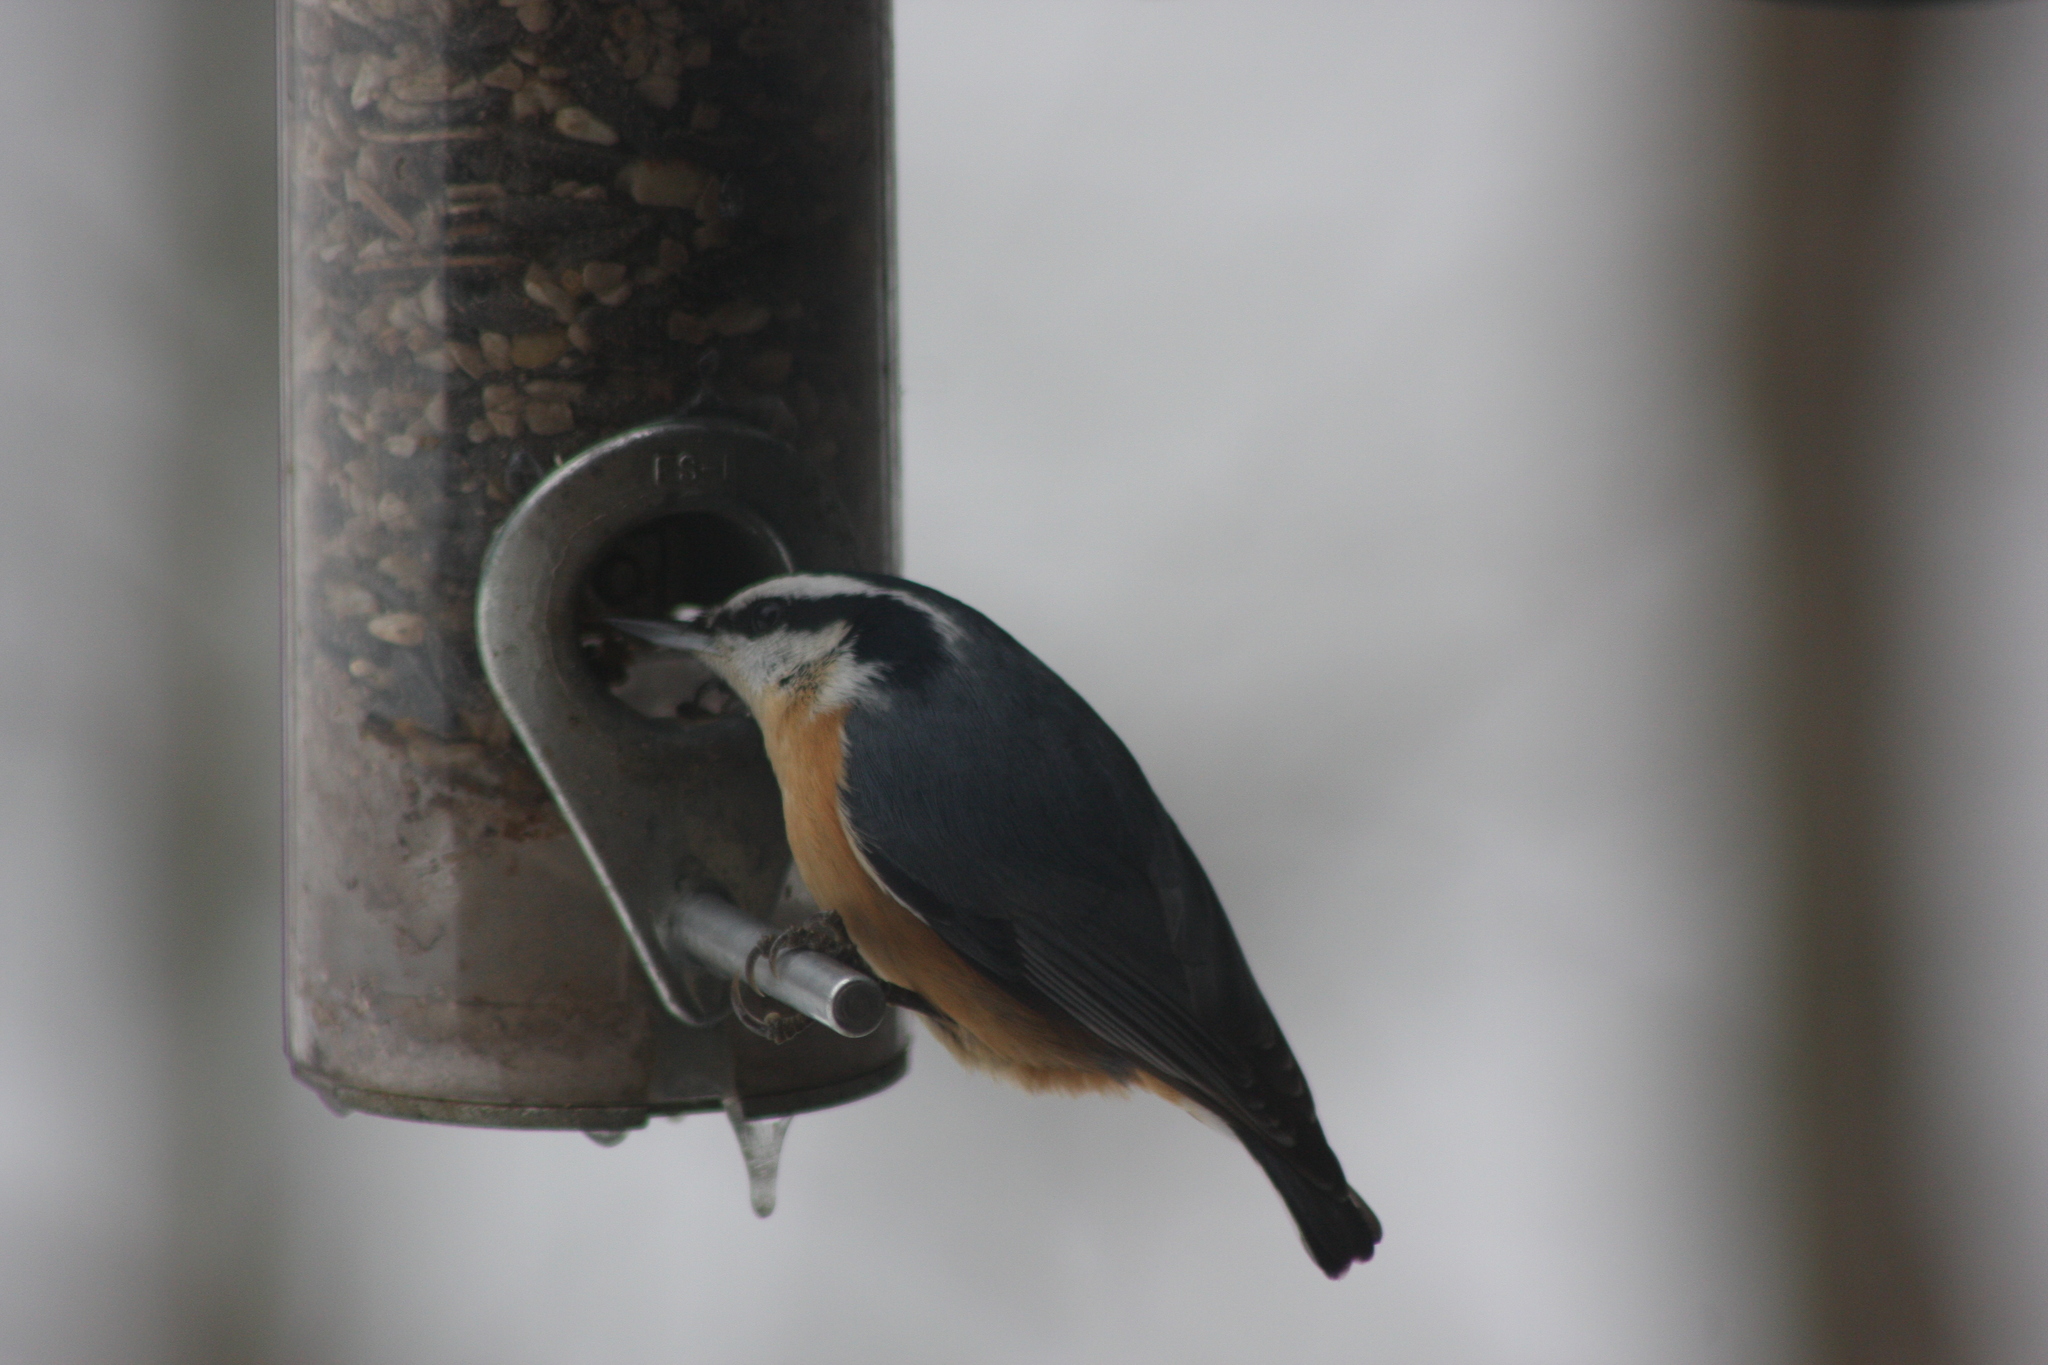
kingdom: Animalia
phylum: Chordata
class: Aves
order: Passeriformes
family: Sittidae
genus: Sitta
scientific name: Sitta canadensis
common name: Red-breasted nuthatch
